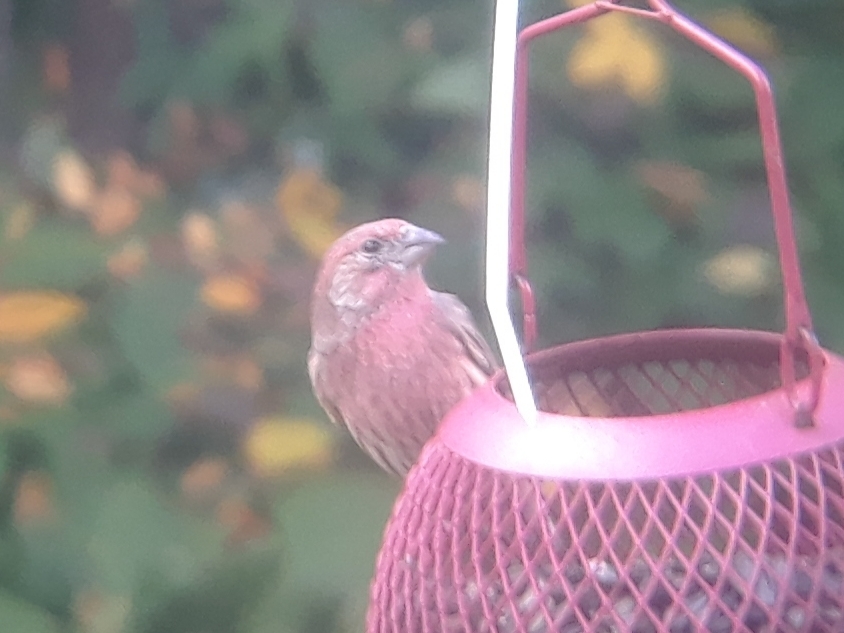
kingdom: Animalia
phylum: Chordata
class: Aves
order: Passeriformes
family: Fringillidae
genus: Haemorhous
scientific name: Haemorhous mexicanus
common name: House finch
